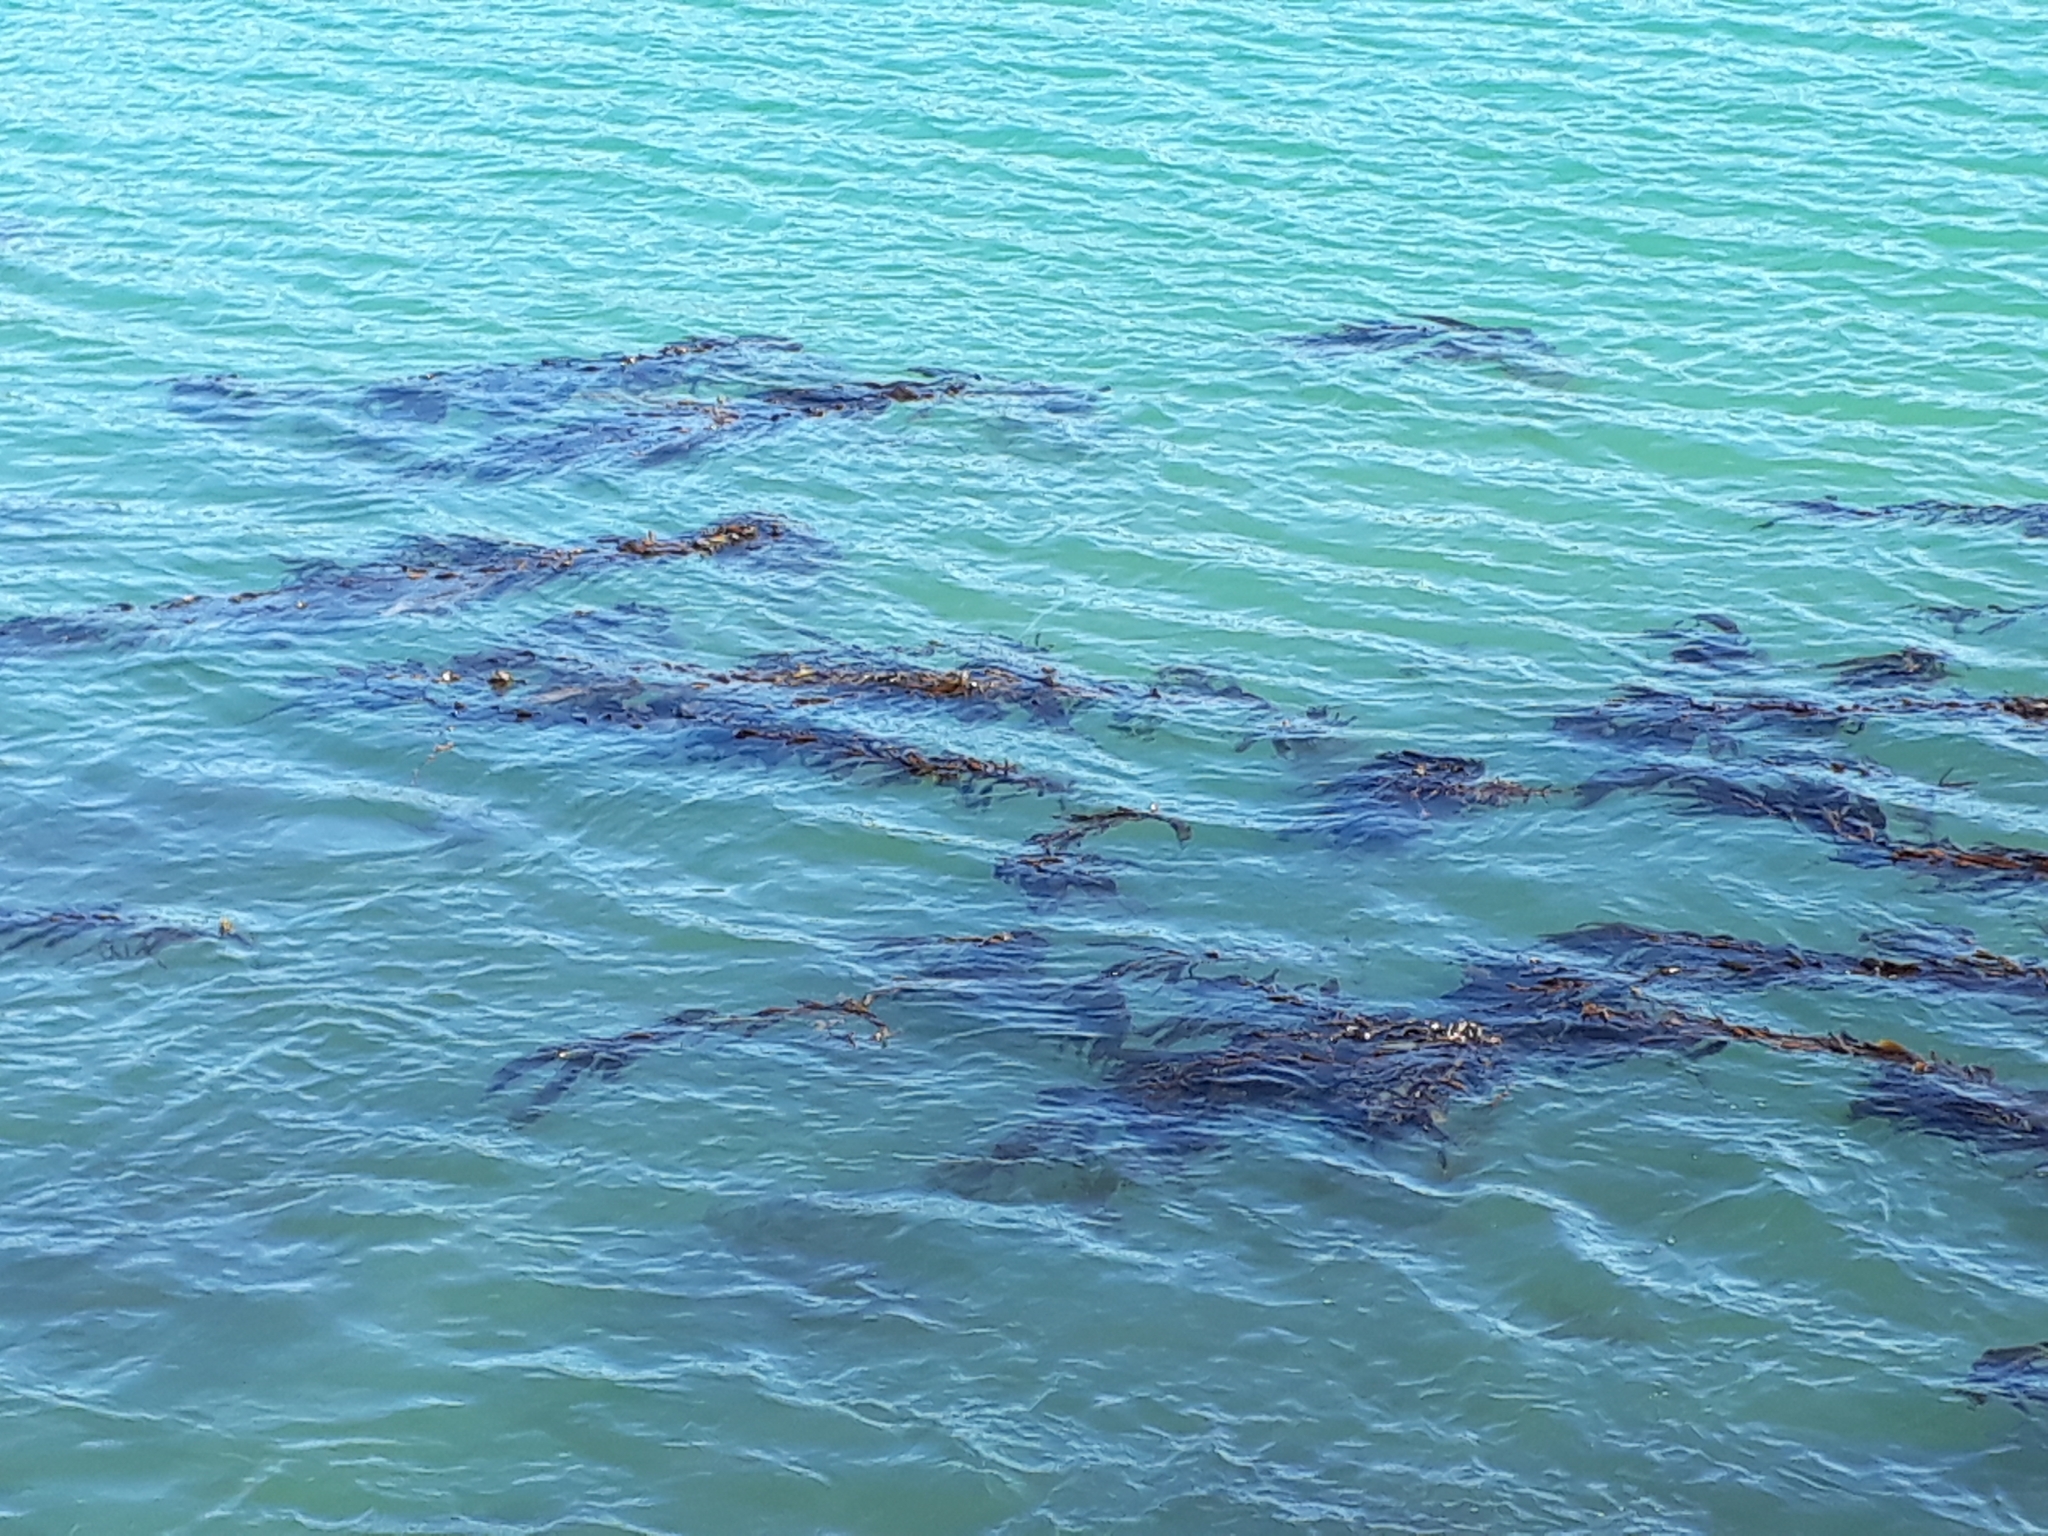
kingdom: Chromista
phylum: Ochrophyta
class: Phaeophyceae
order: Laminariales
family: Laminariaceae
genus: Macrocystis
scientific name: Macrocystis pyrifera
